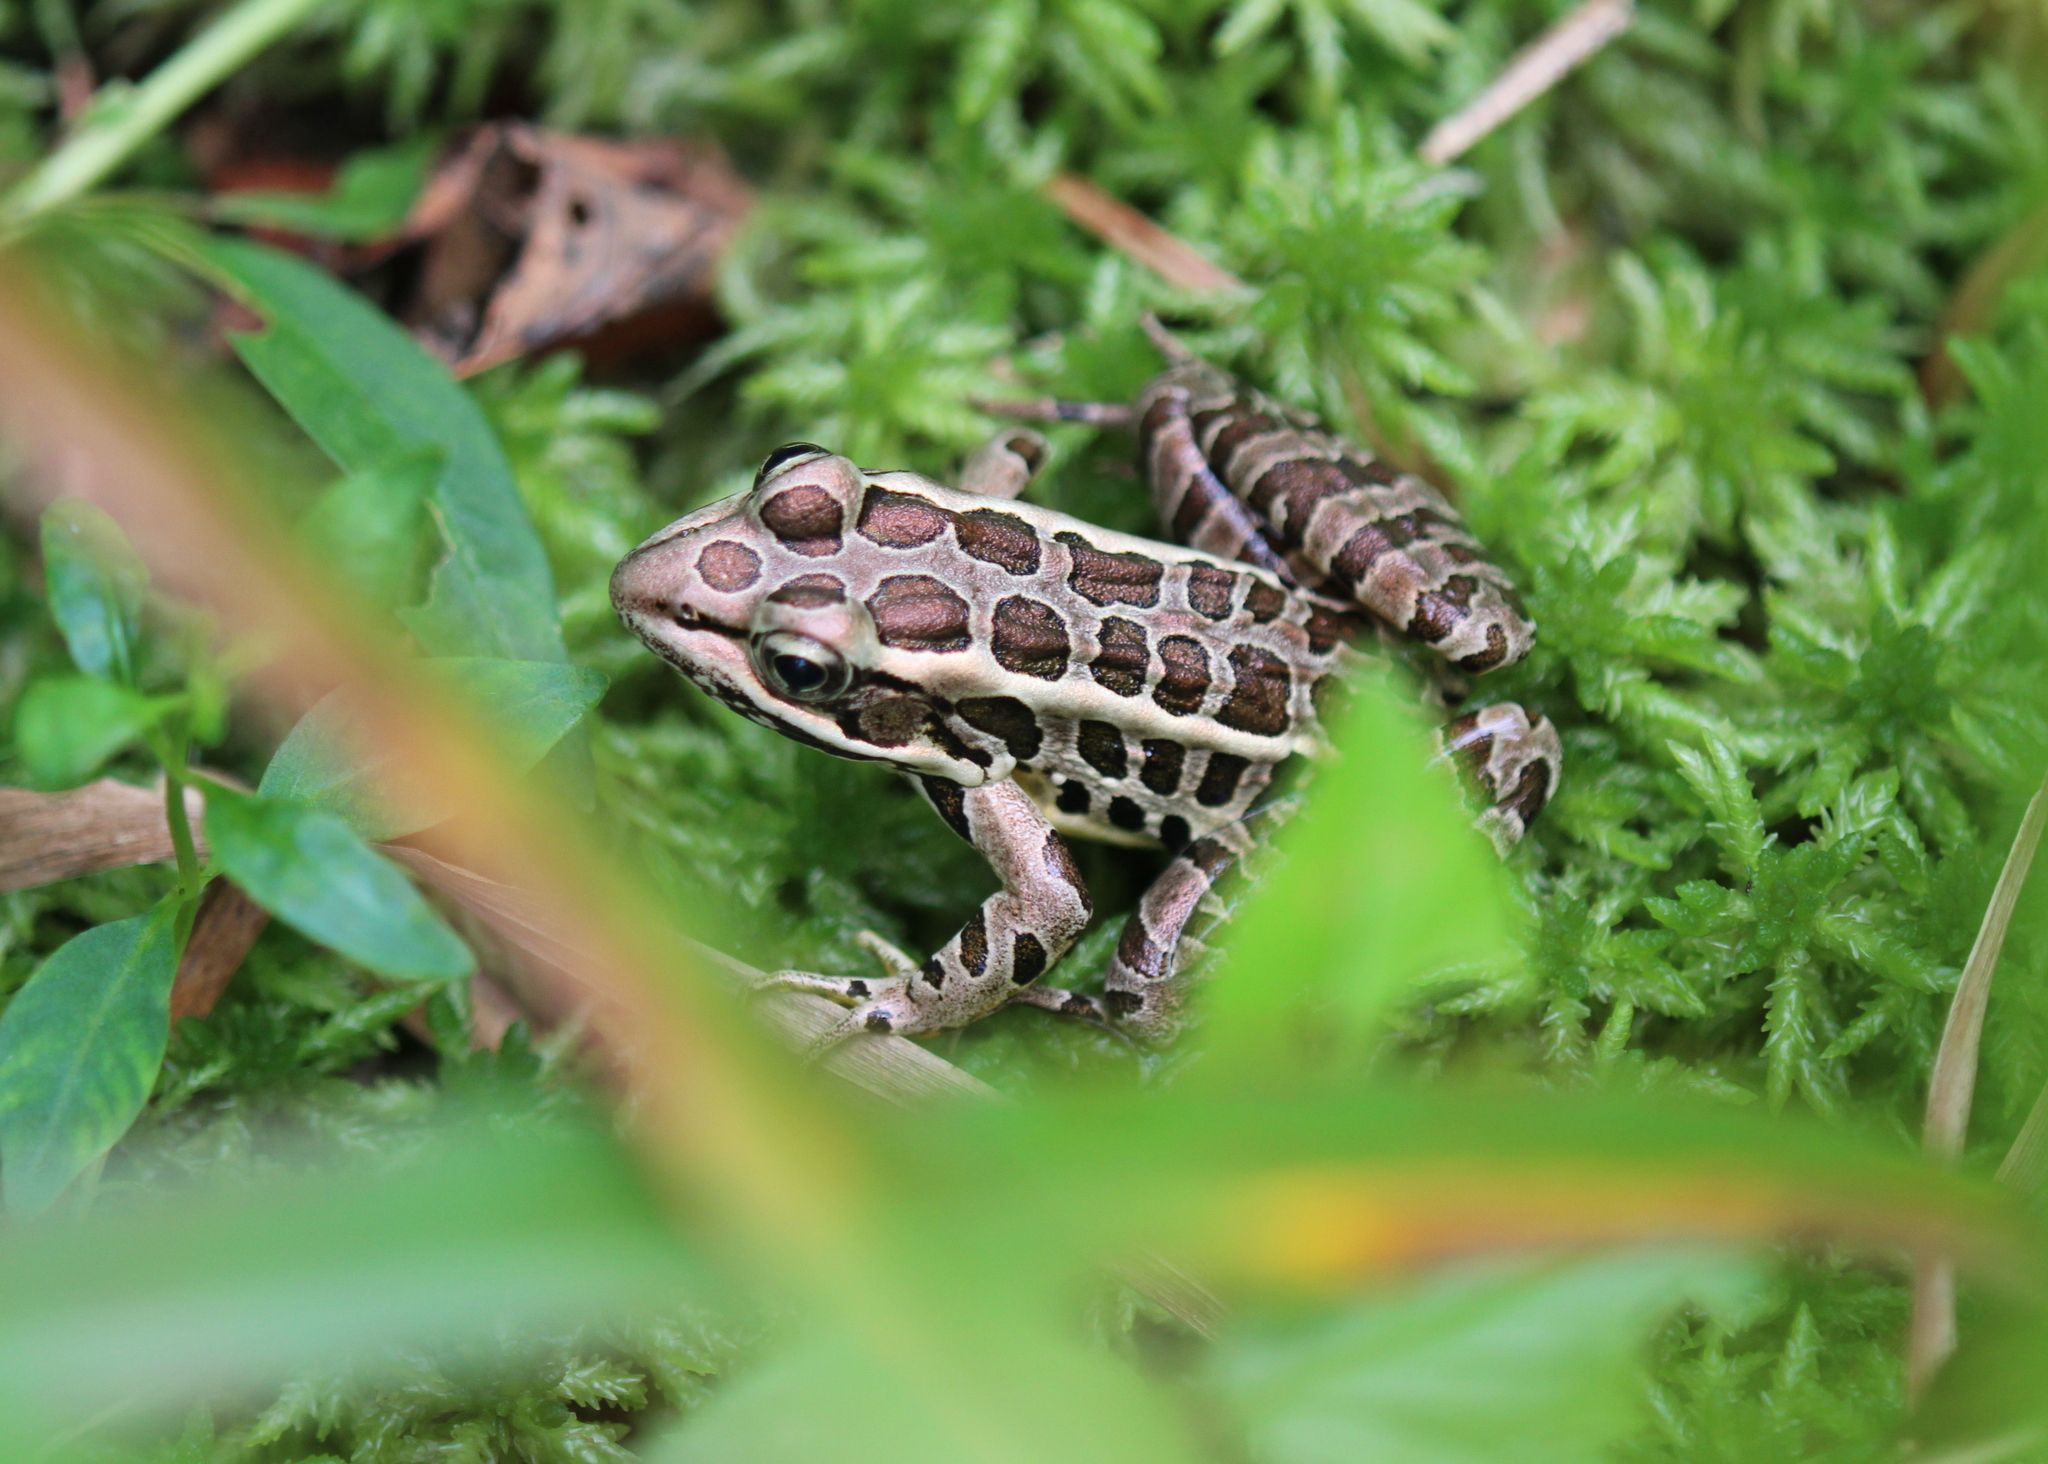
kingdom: Animalia
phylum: Chordata
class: Amphibia
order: Anura
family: Ranidae
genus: Lithobates
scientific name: Lithobates palustris
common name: Pickerel frog
